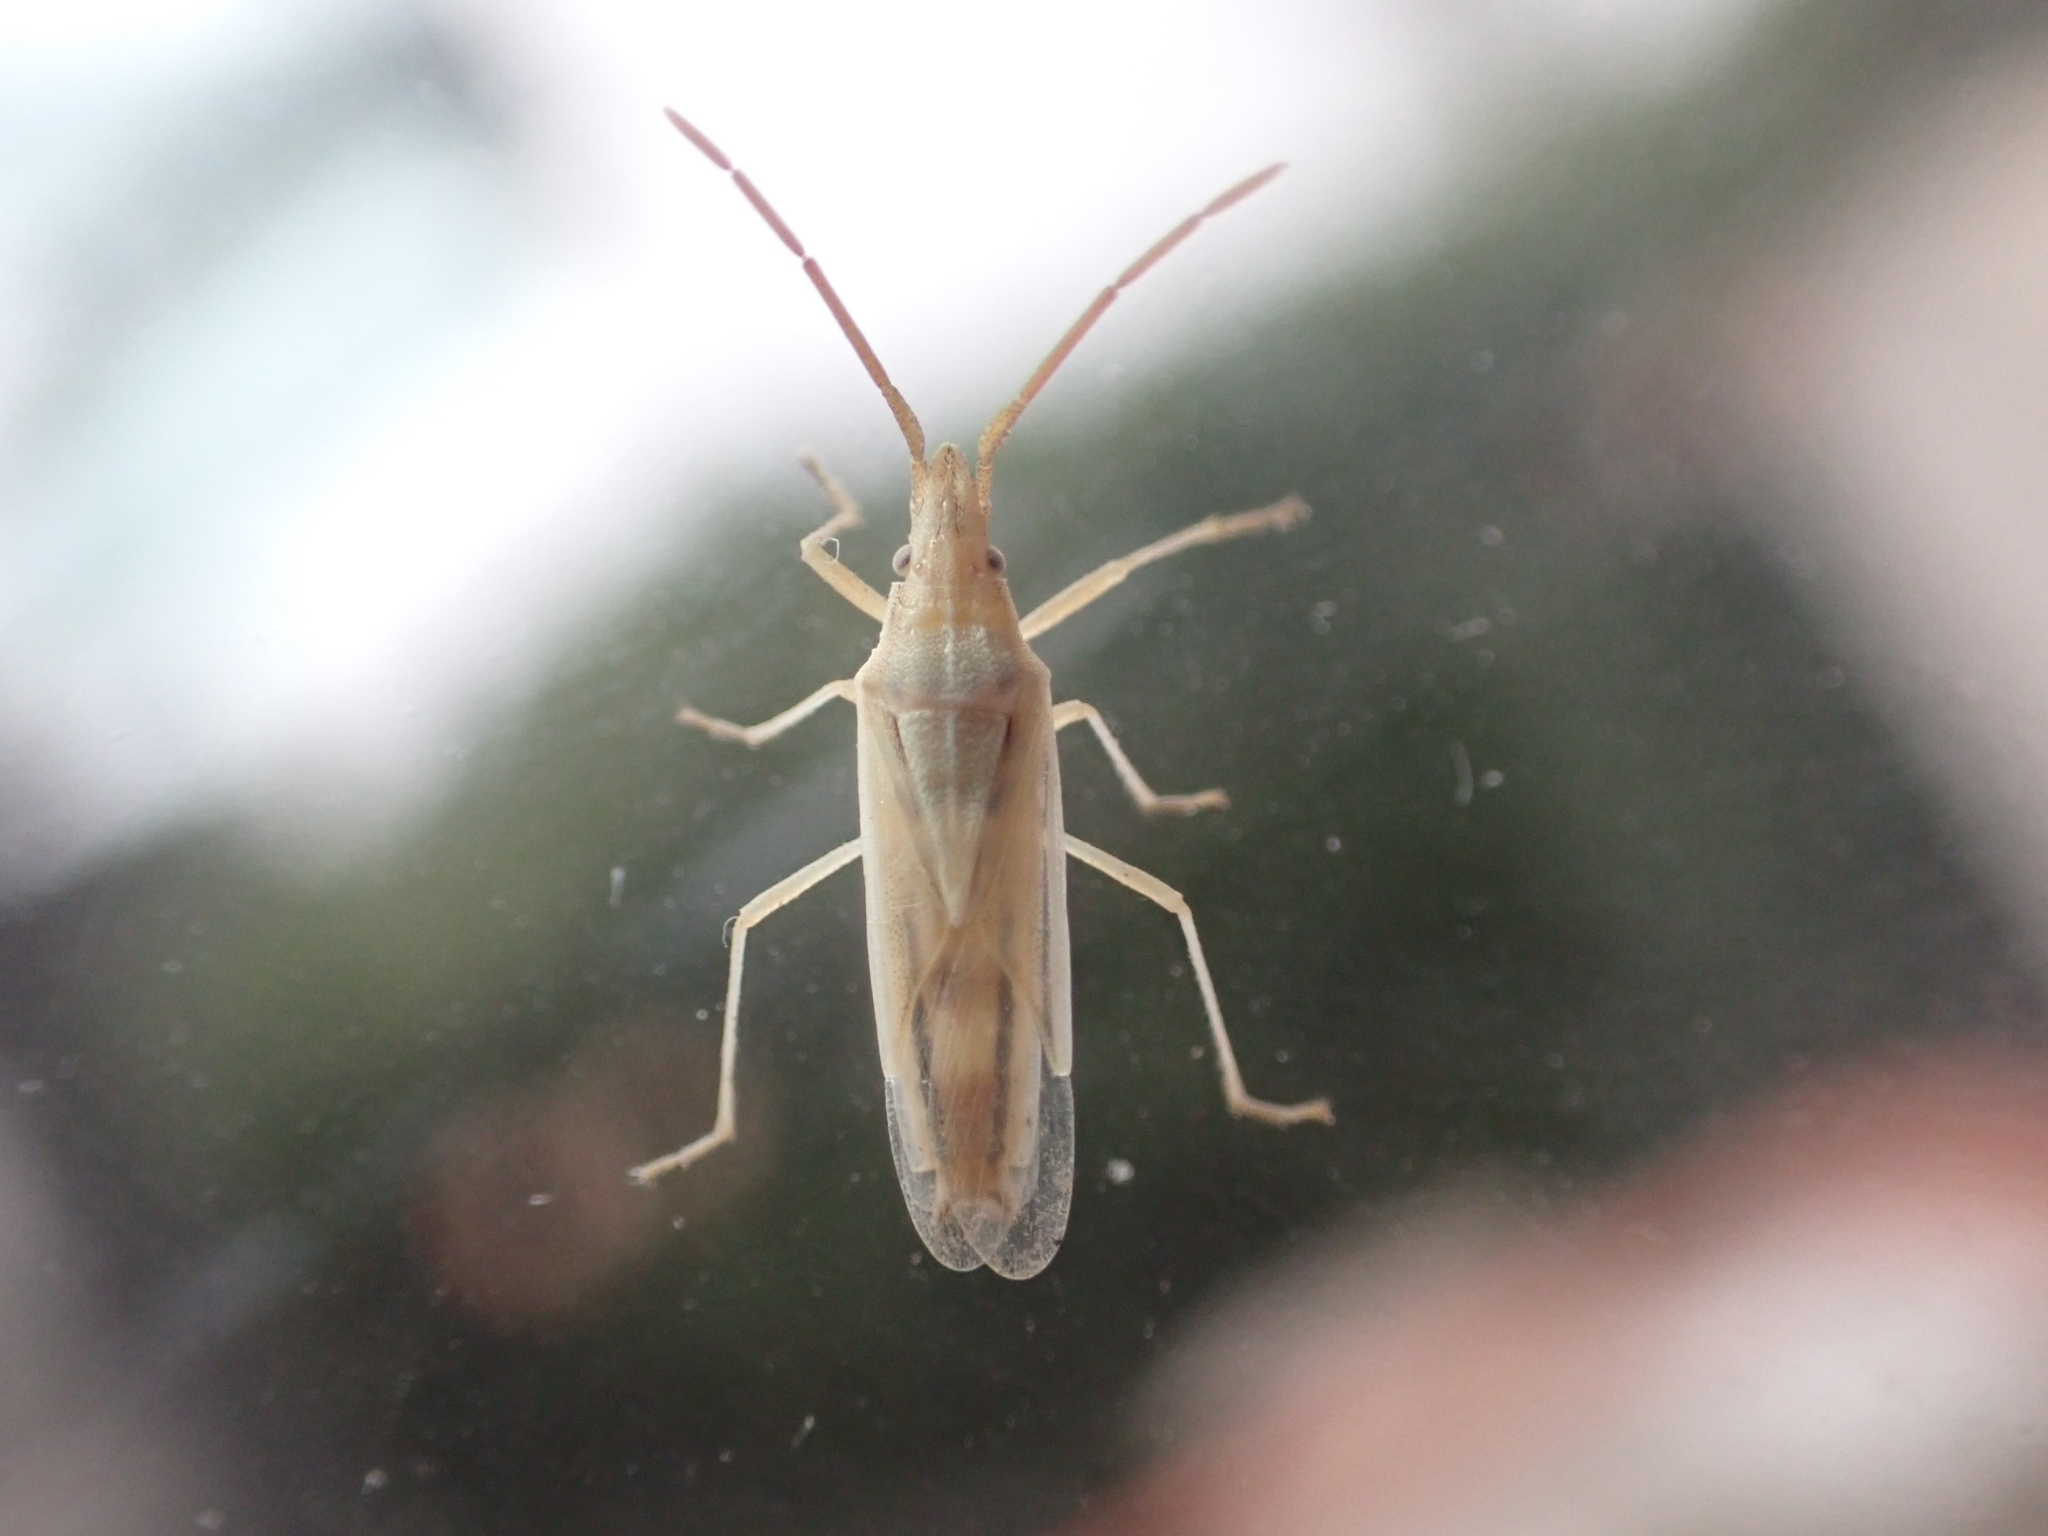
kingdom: Animalia
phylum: Arthropoda
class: Insecta
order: Hemiptera
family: Pentatomidae
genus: Mecidea
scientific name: Mecidea lindbergi
